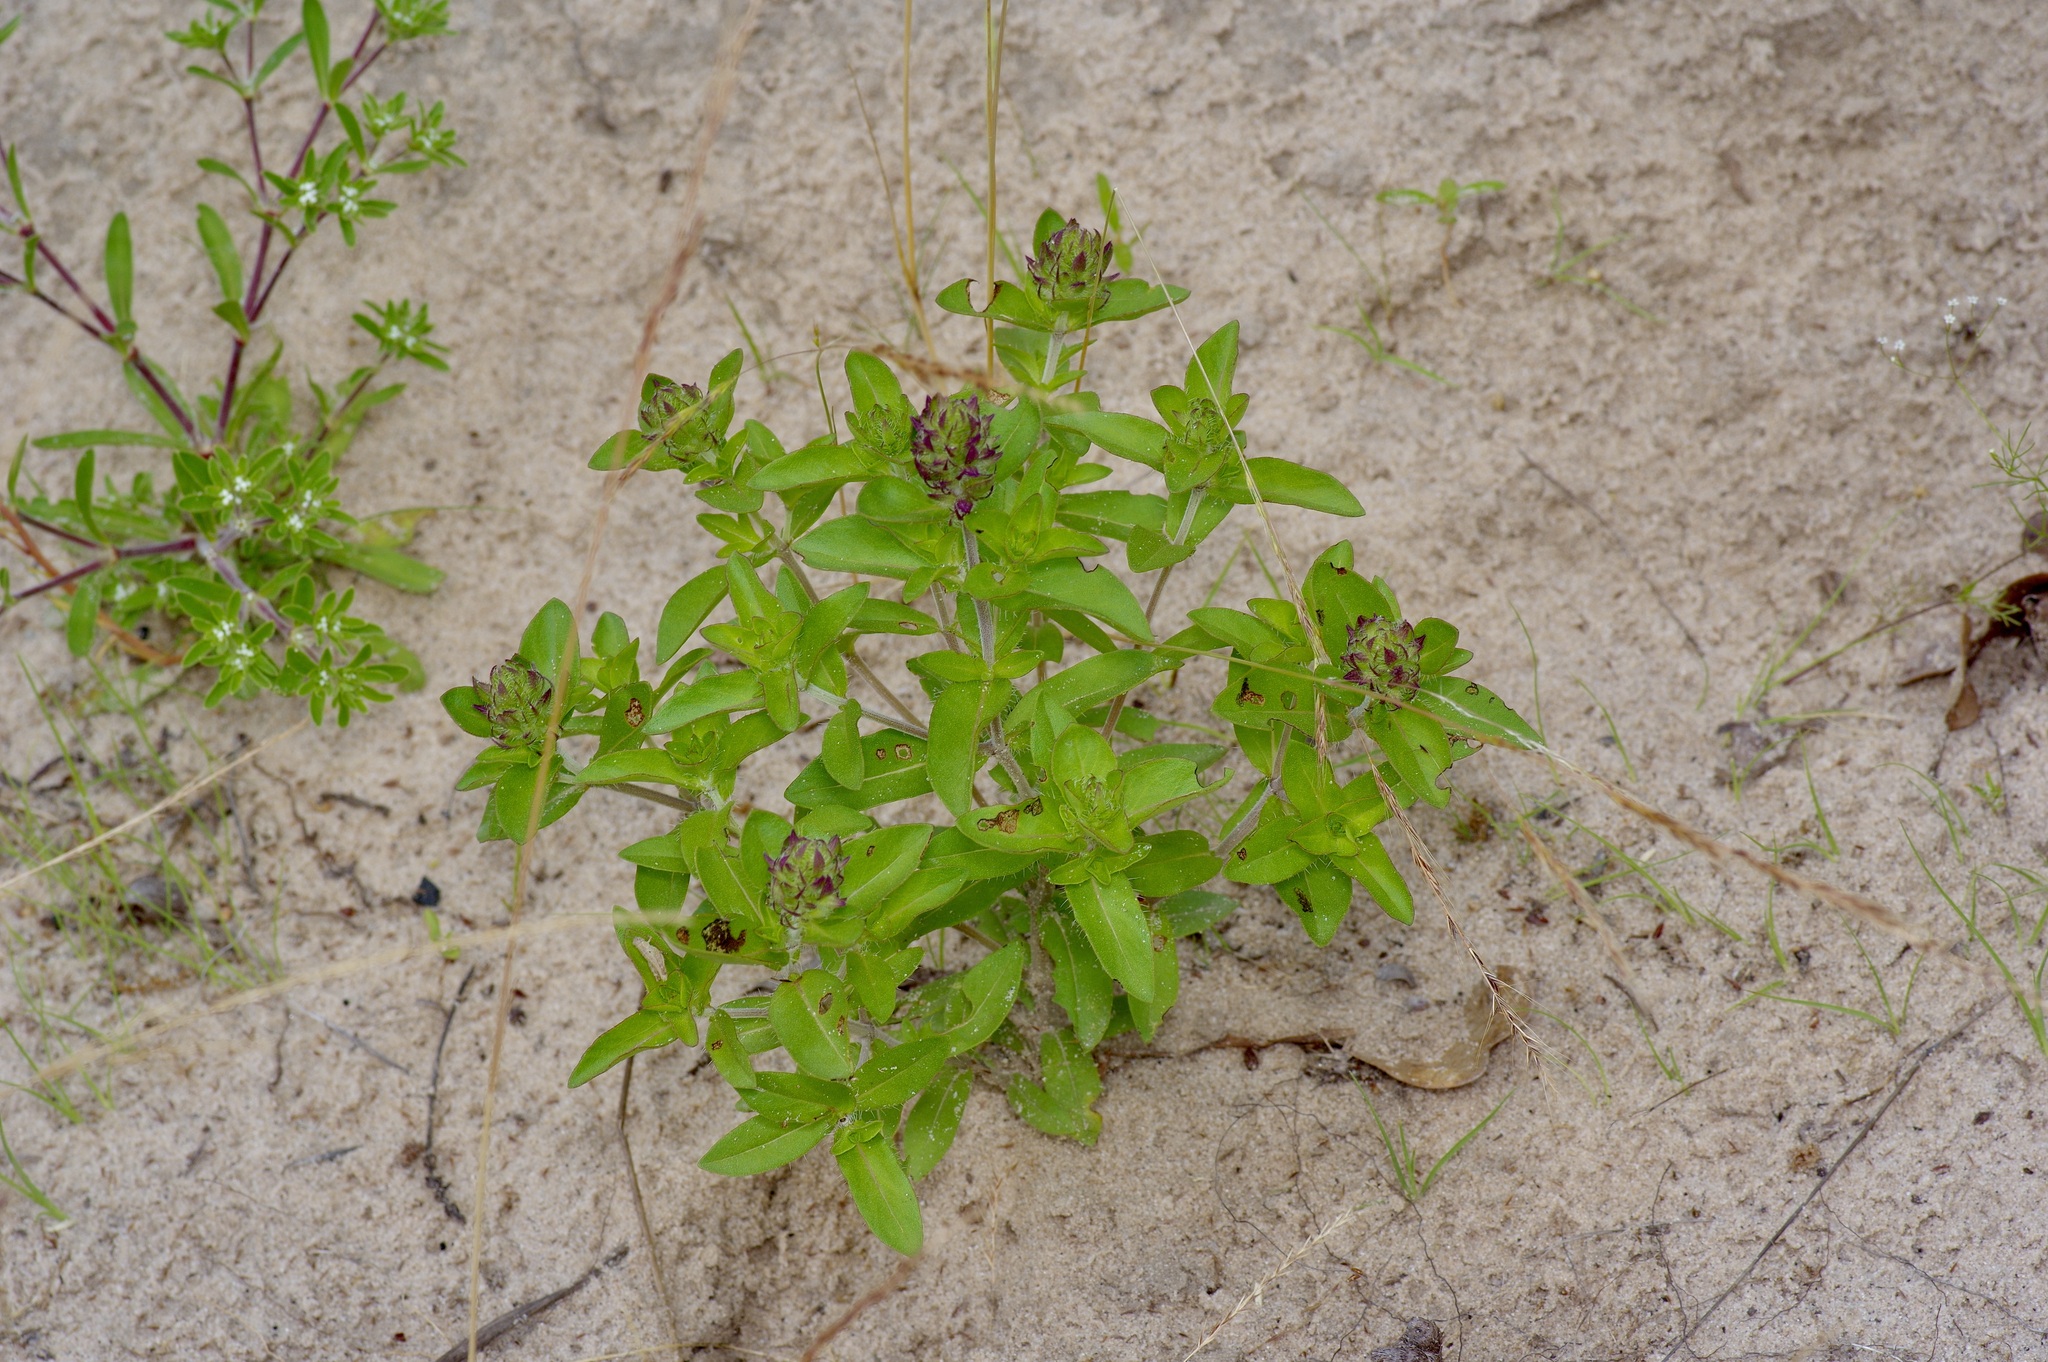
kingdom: Plantae
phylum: Tracheophyta
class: Magnoliopsida
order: Lamiales
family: Lamiaceae
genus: Rhododon
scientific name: Rhododon ciliatus
